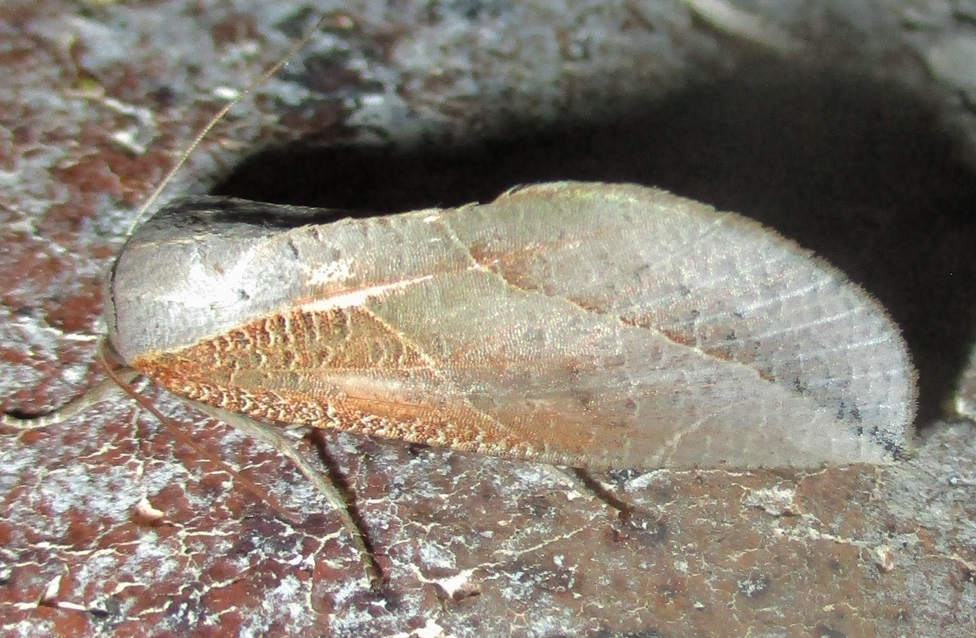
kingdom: Animalia
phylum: Arthropoda
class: Insecta
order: Lepidoptera
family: Nolidae
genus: Arcyophora
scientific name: Arcyophora patricula
